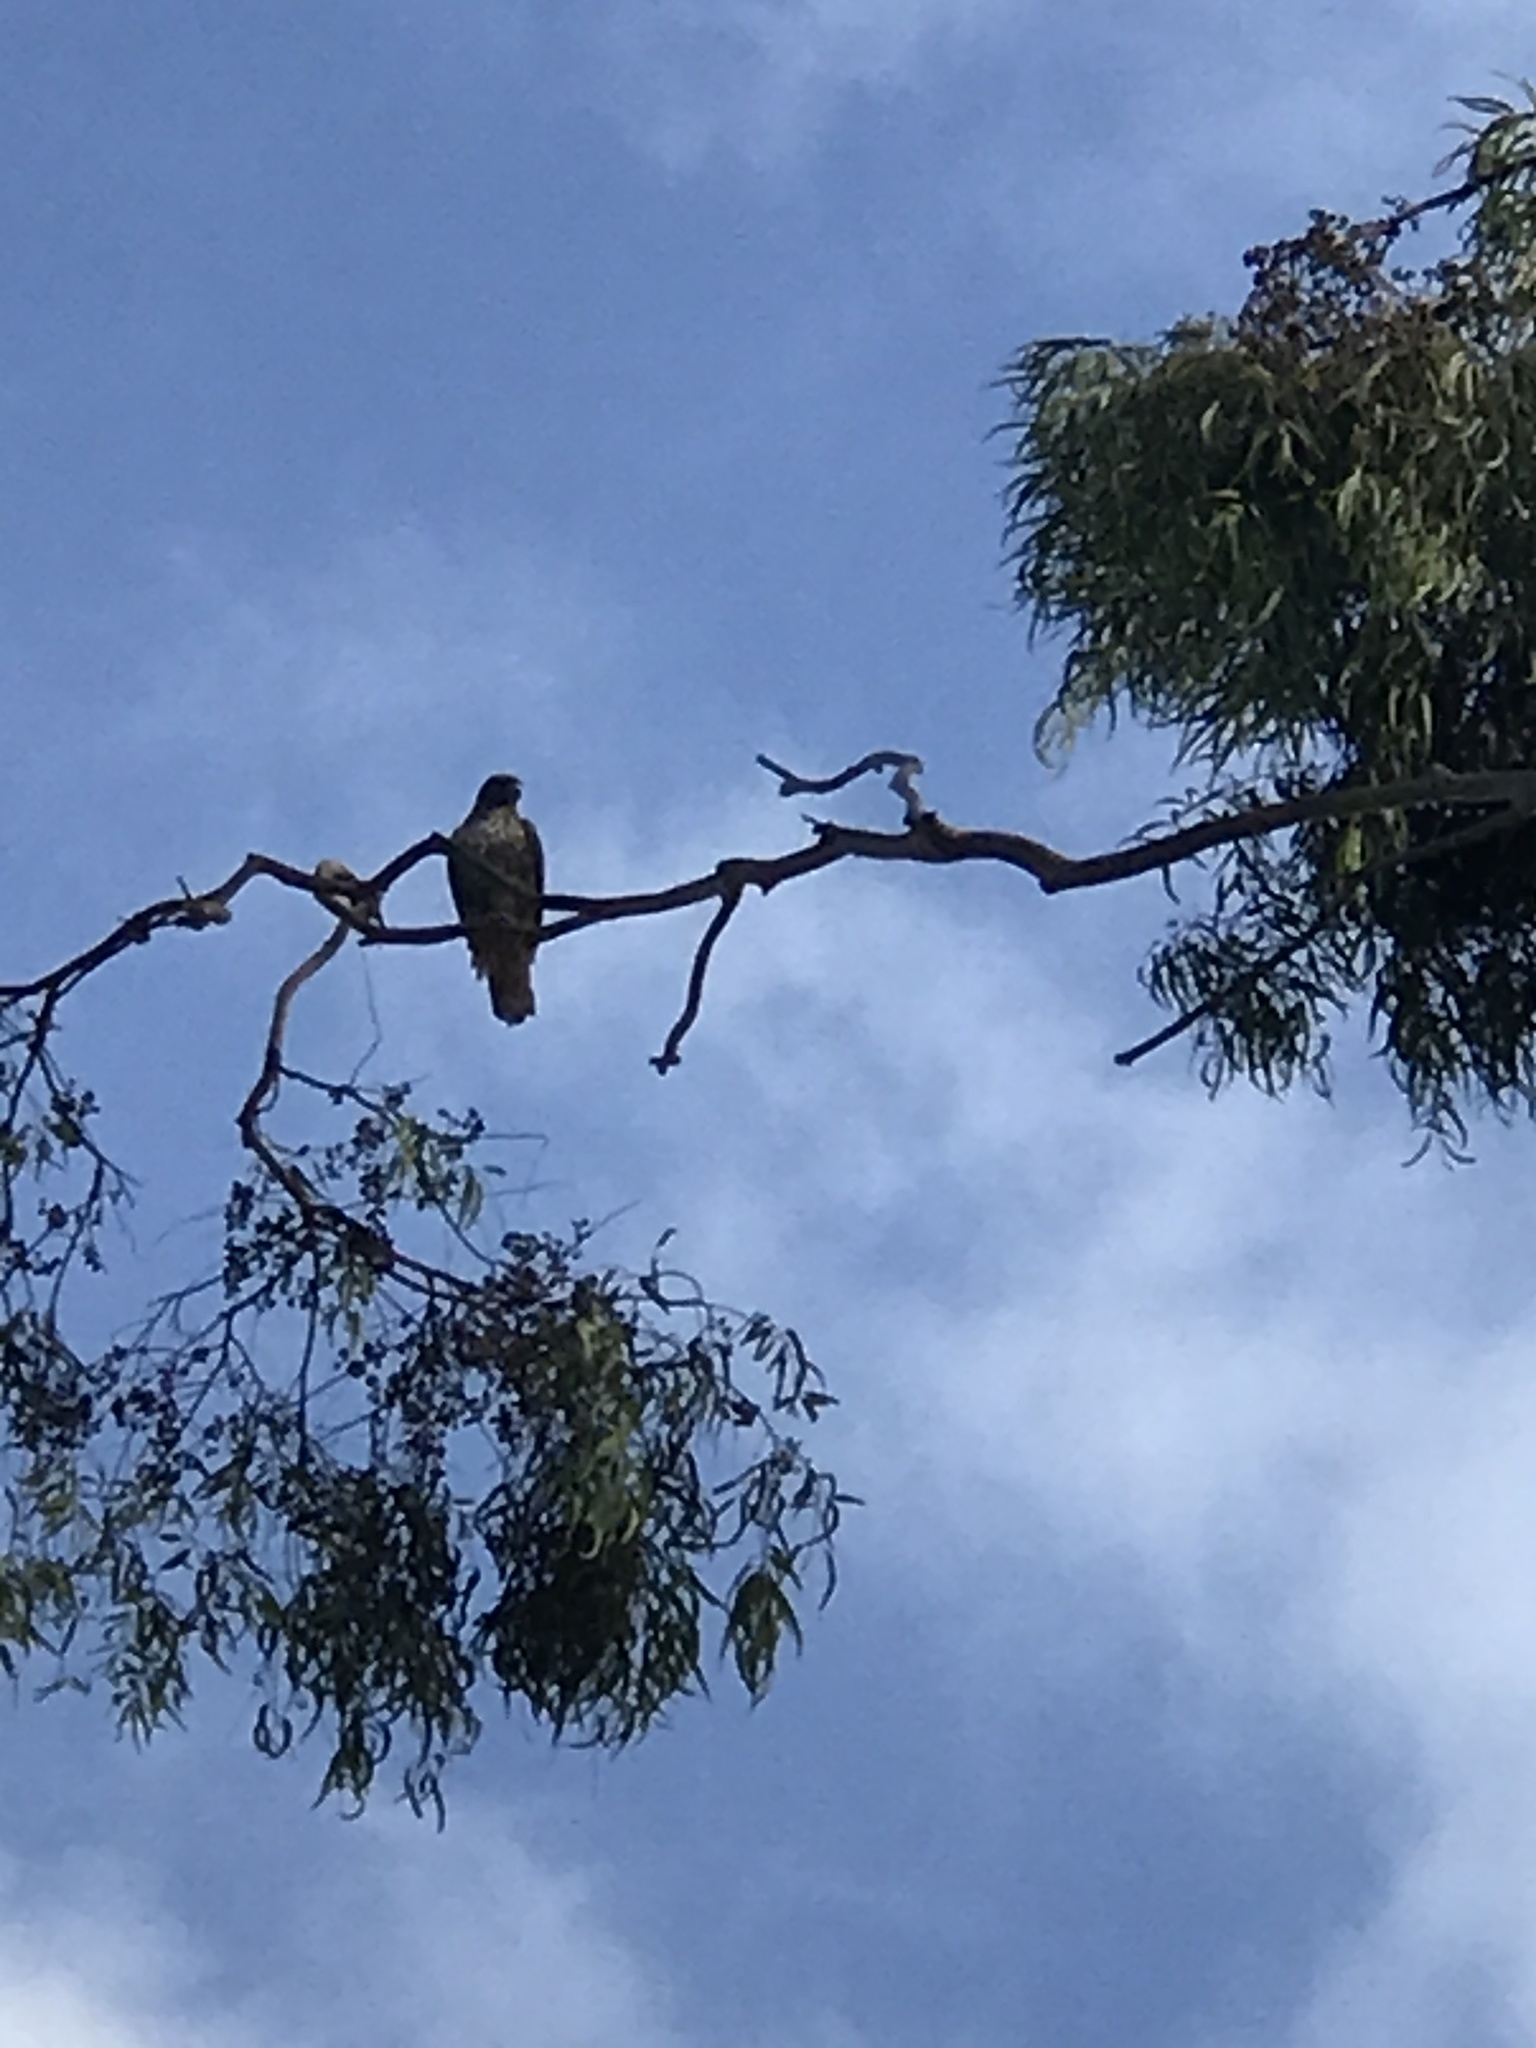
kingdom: Animalia
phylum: Chordata
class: Aves
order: Accipitriformes
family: Accipitridae
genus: Buteo
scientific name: Buteo jamaicensis
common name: Red-tailed hawk
